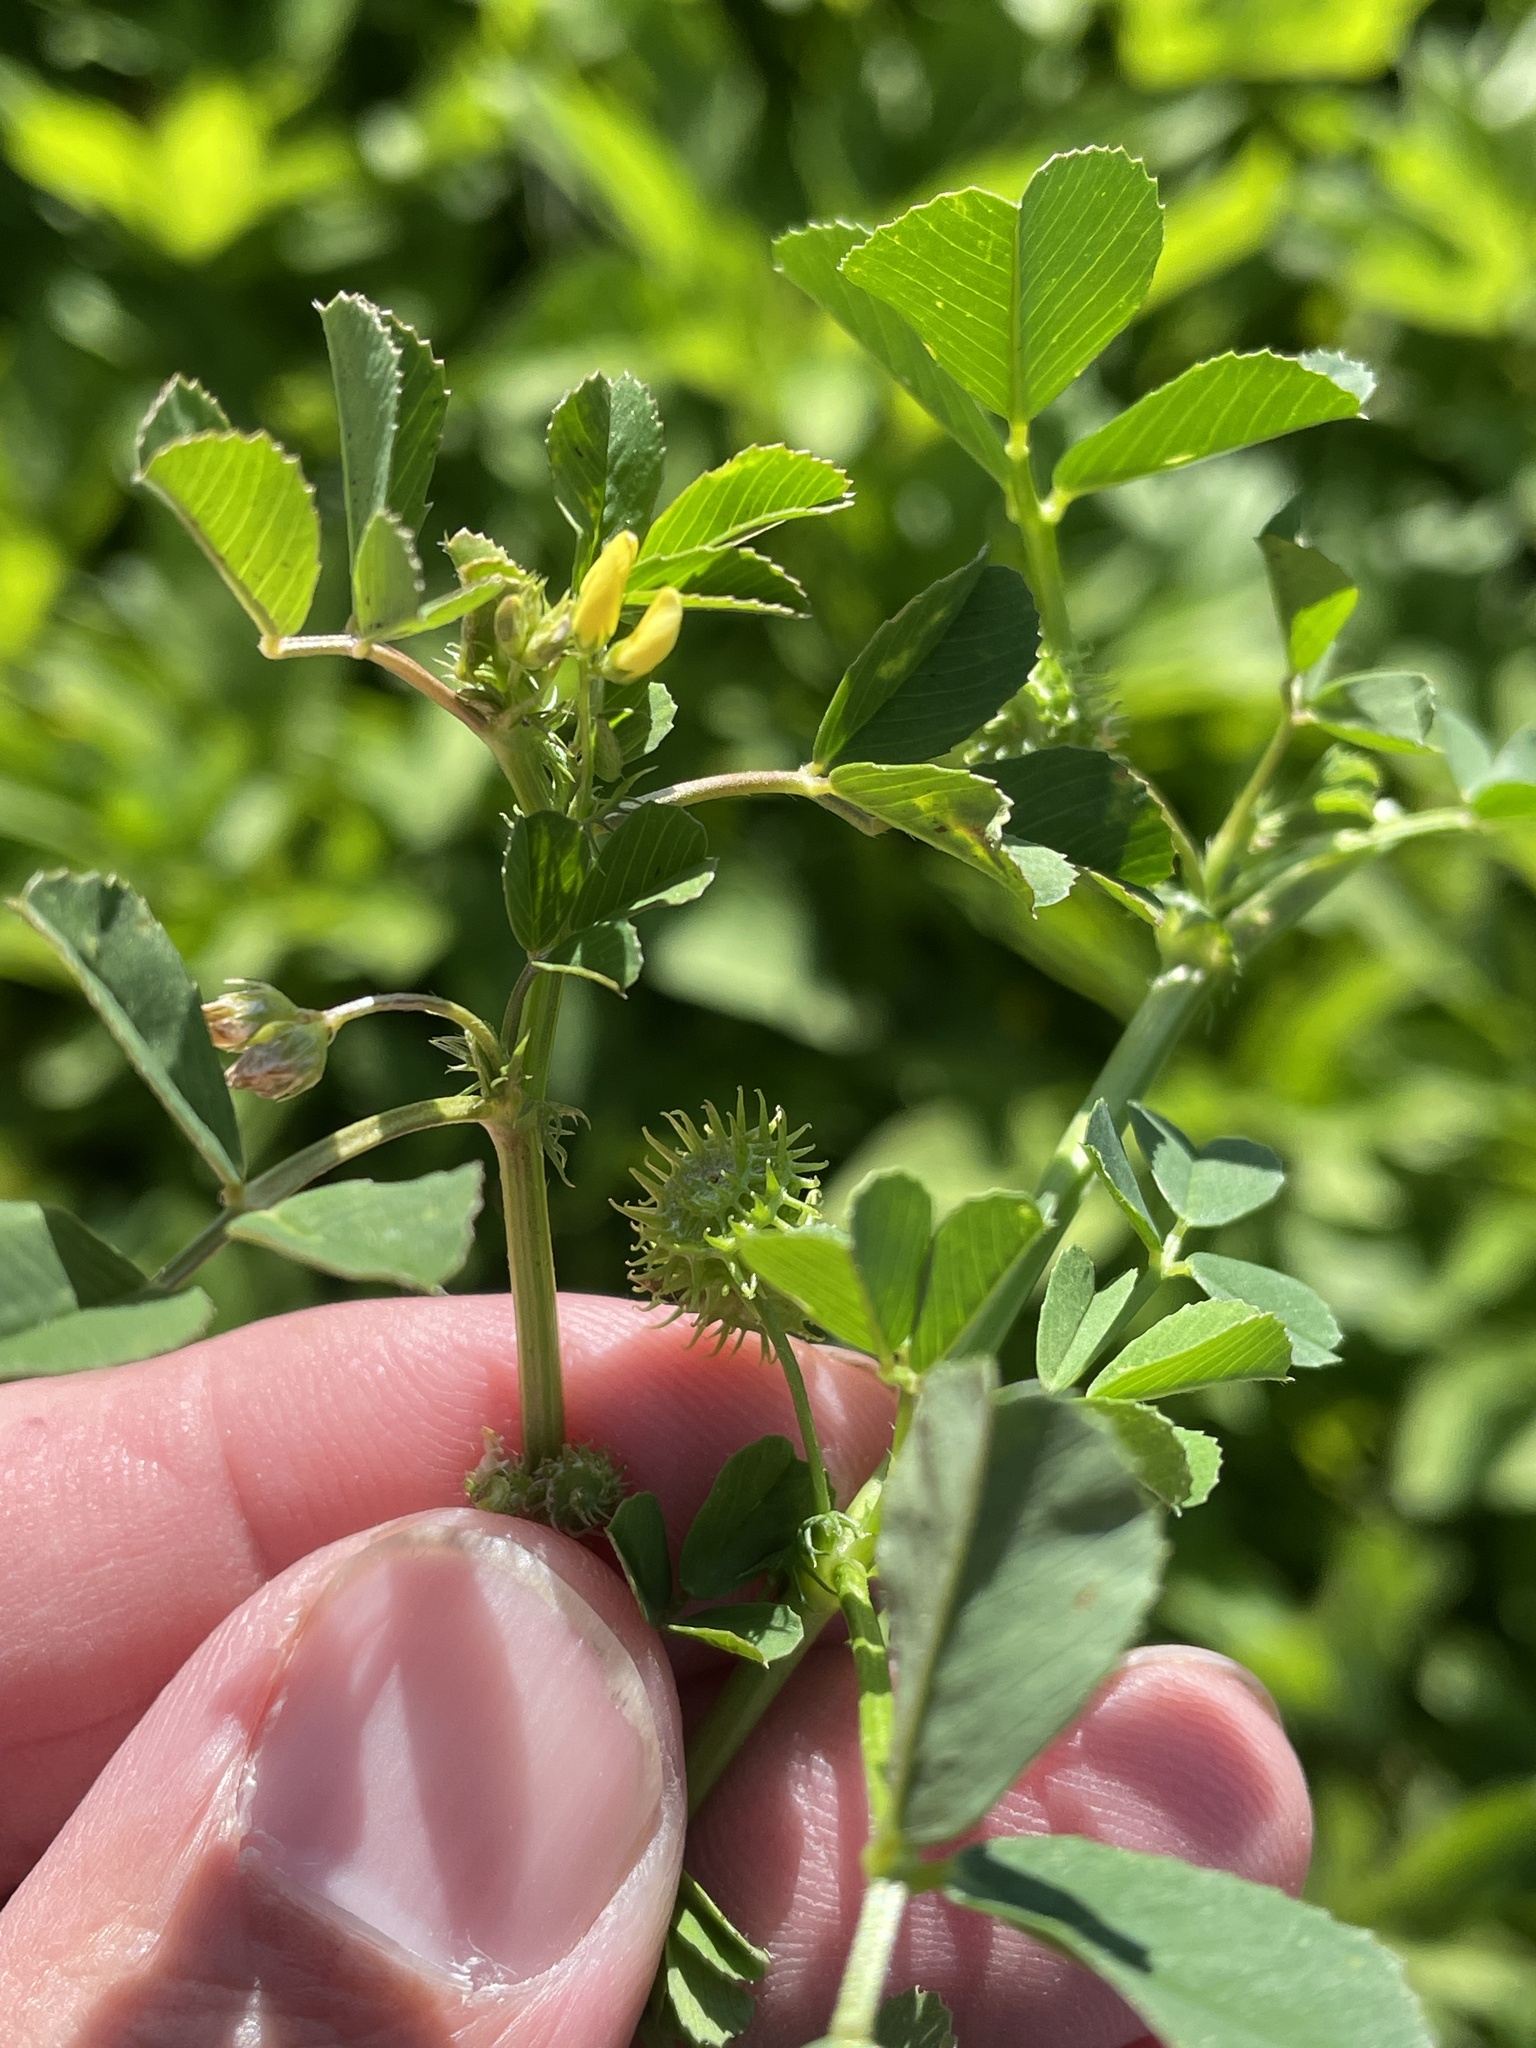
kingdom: Plantae
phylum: Tracheophyta
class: Magnoliopsida
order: Fabales
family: Fabaceae
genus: Medicago
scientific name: Medicago polymorpha
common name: Burclover
